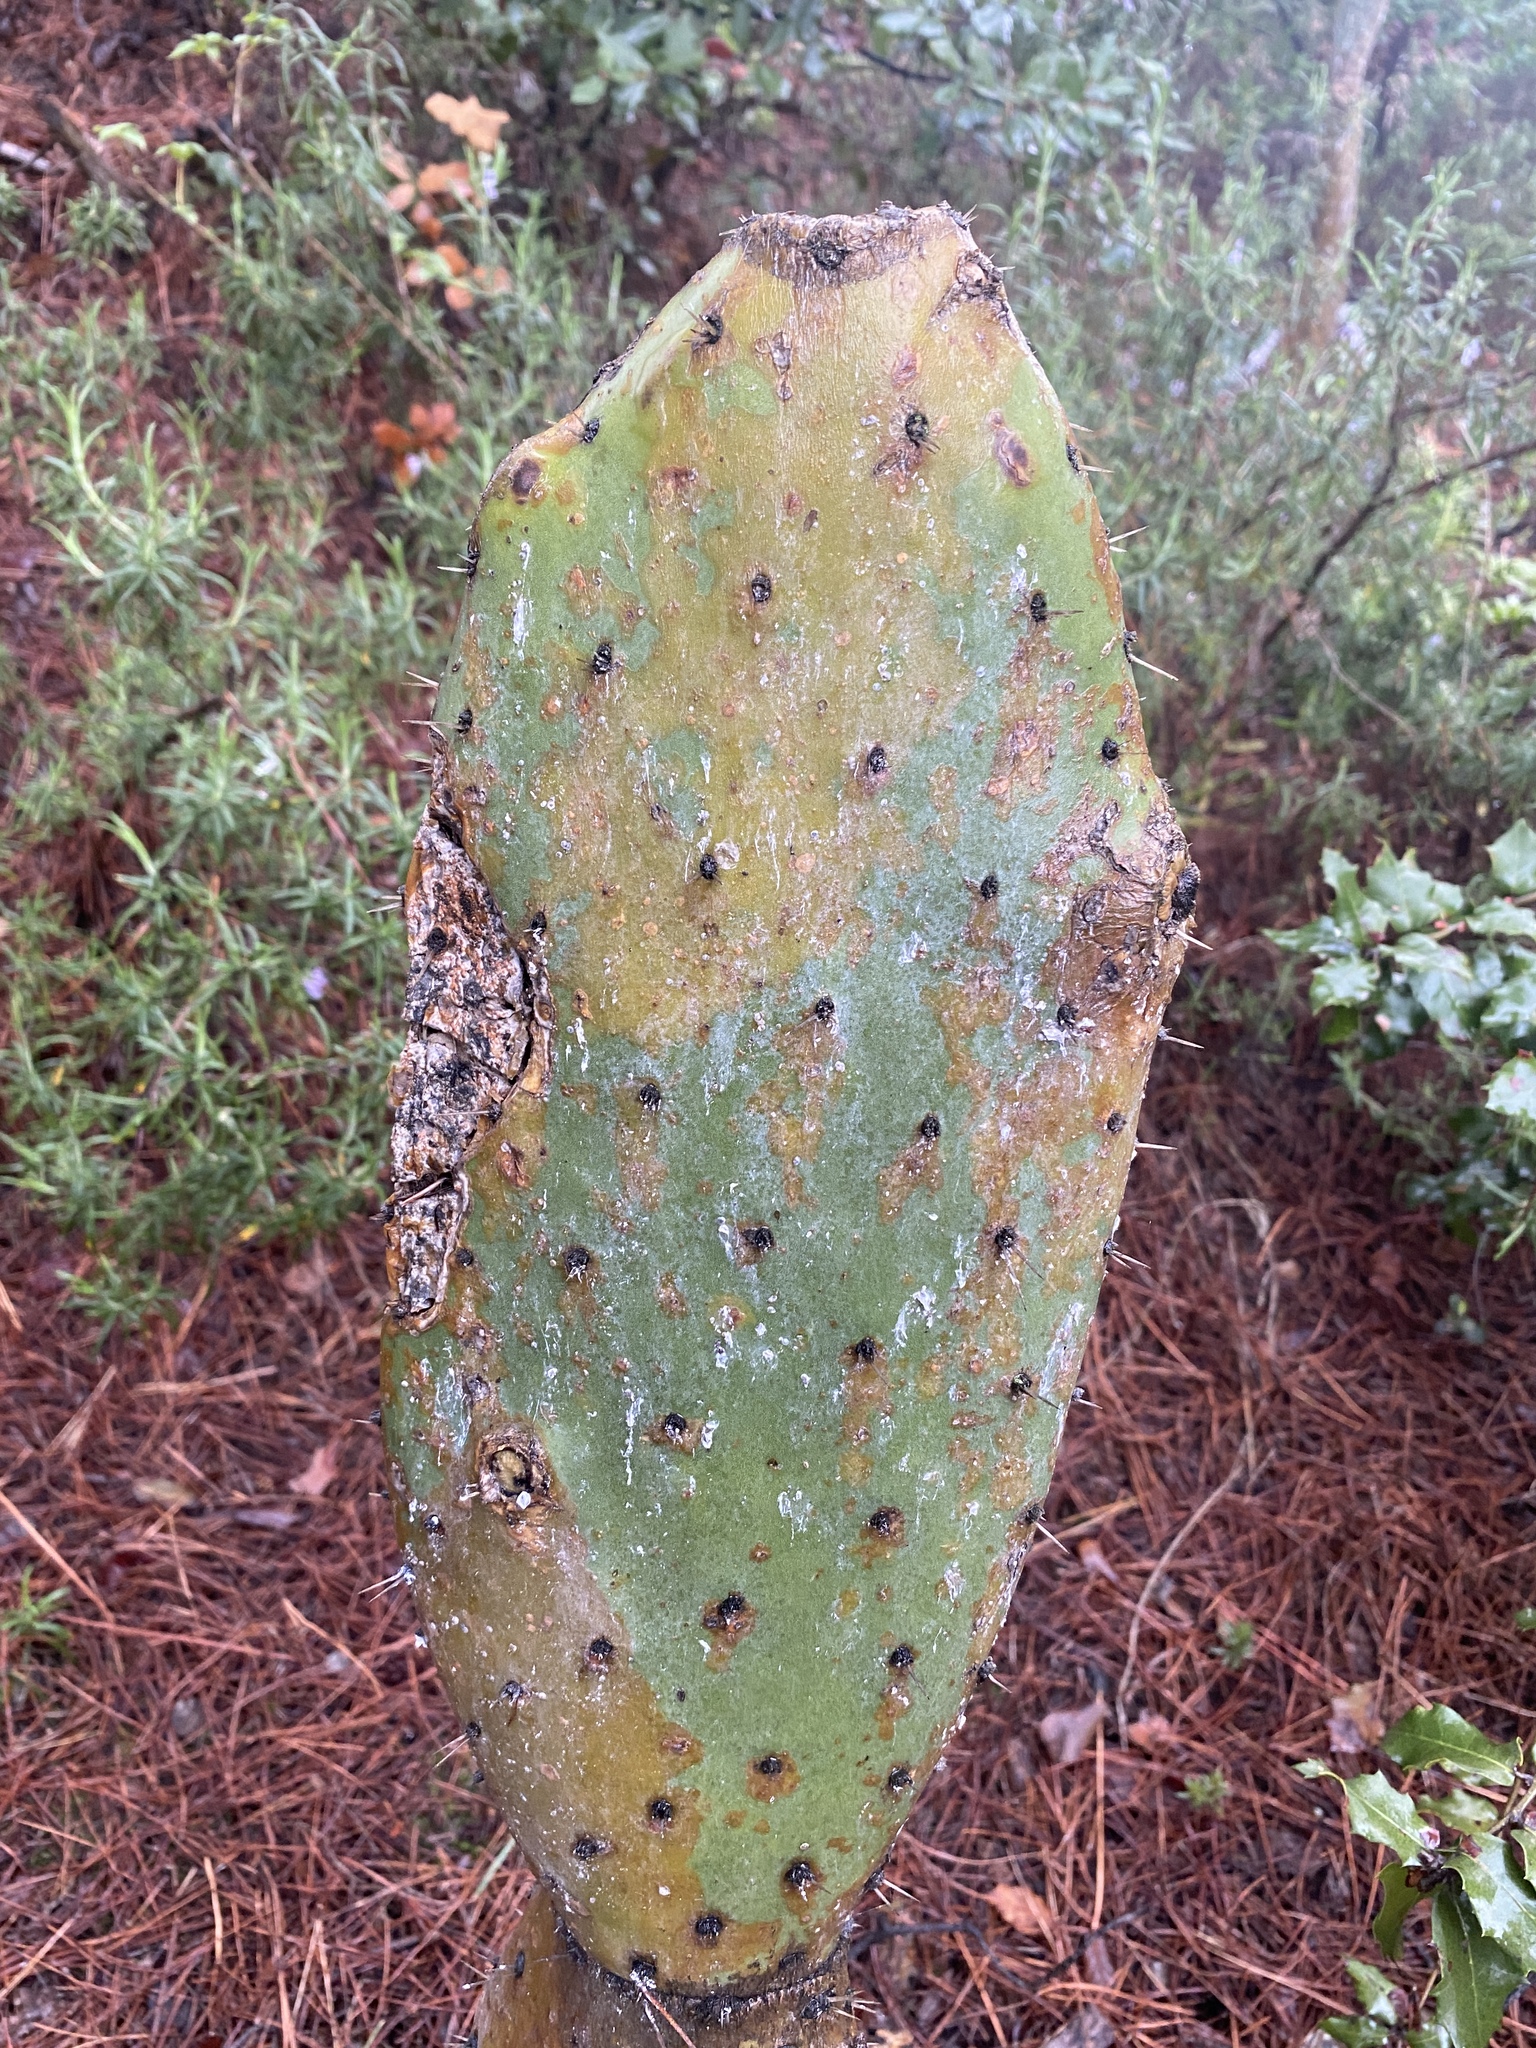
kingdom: Plantae
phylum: Tracheophyta
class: Magnoliopsida
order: Caryophyllales
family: Cactaceae
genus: Opuntia
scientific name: Opuntia ficus-indica
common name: Barbary fig
